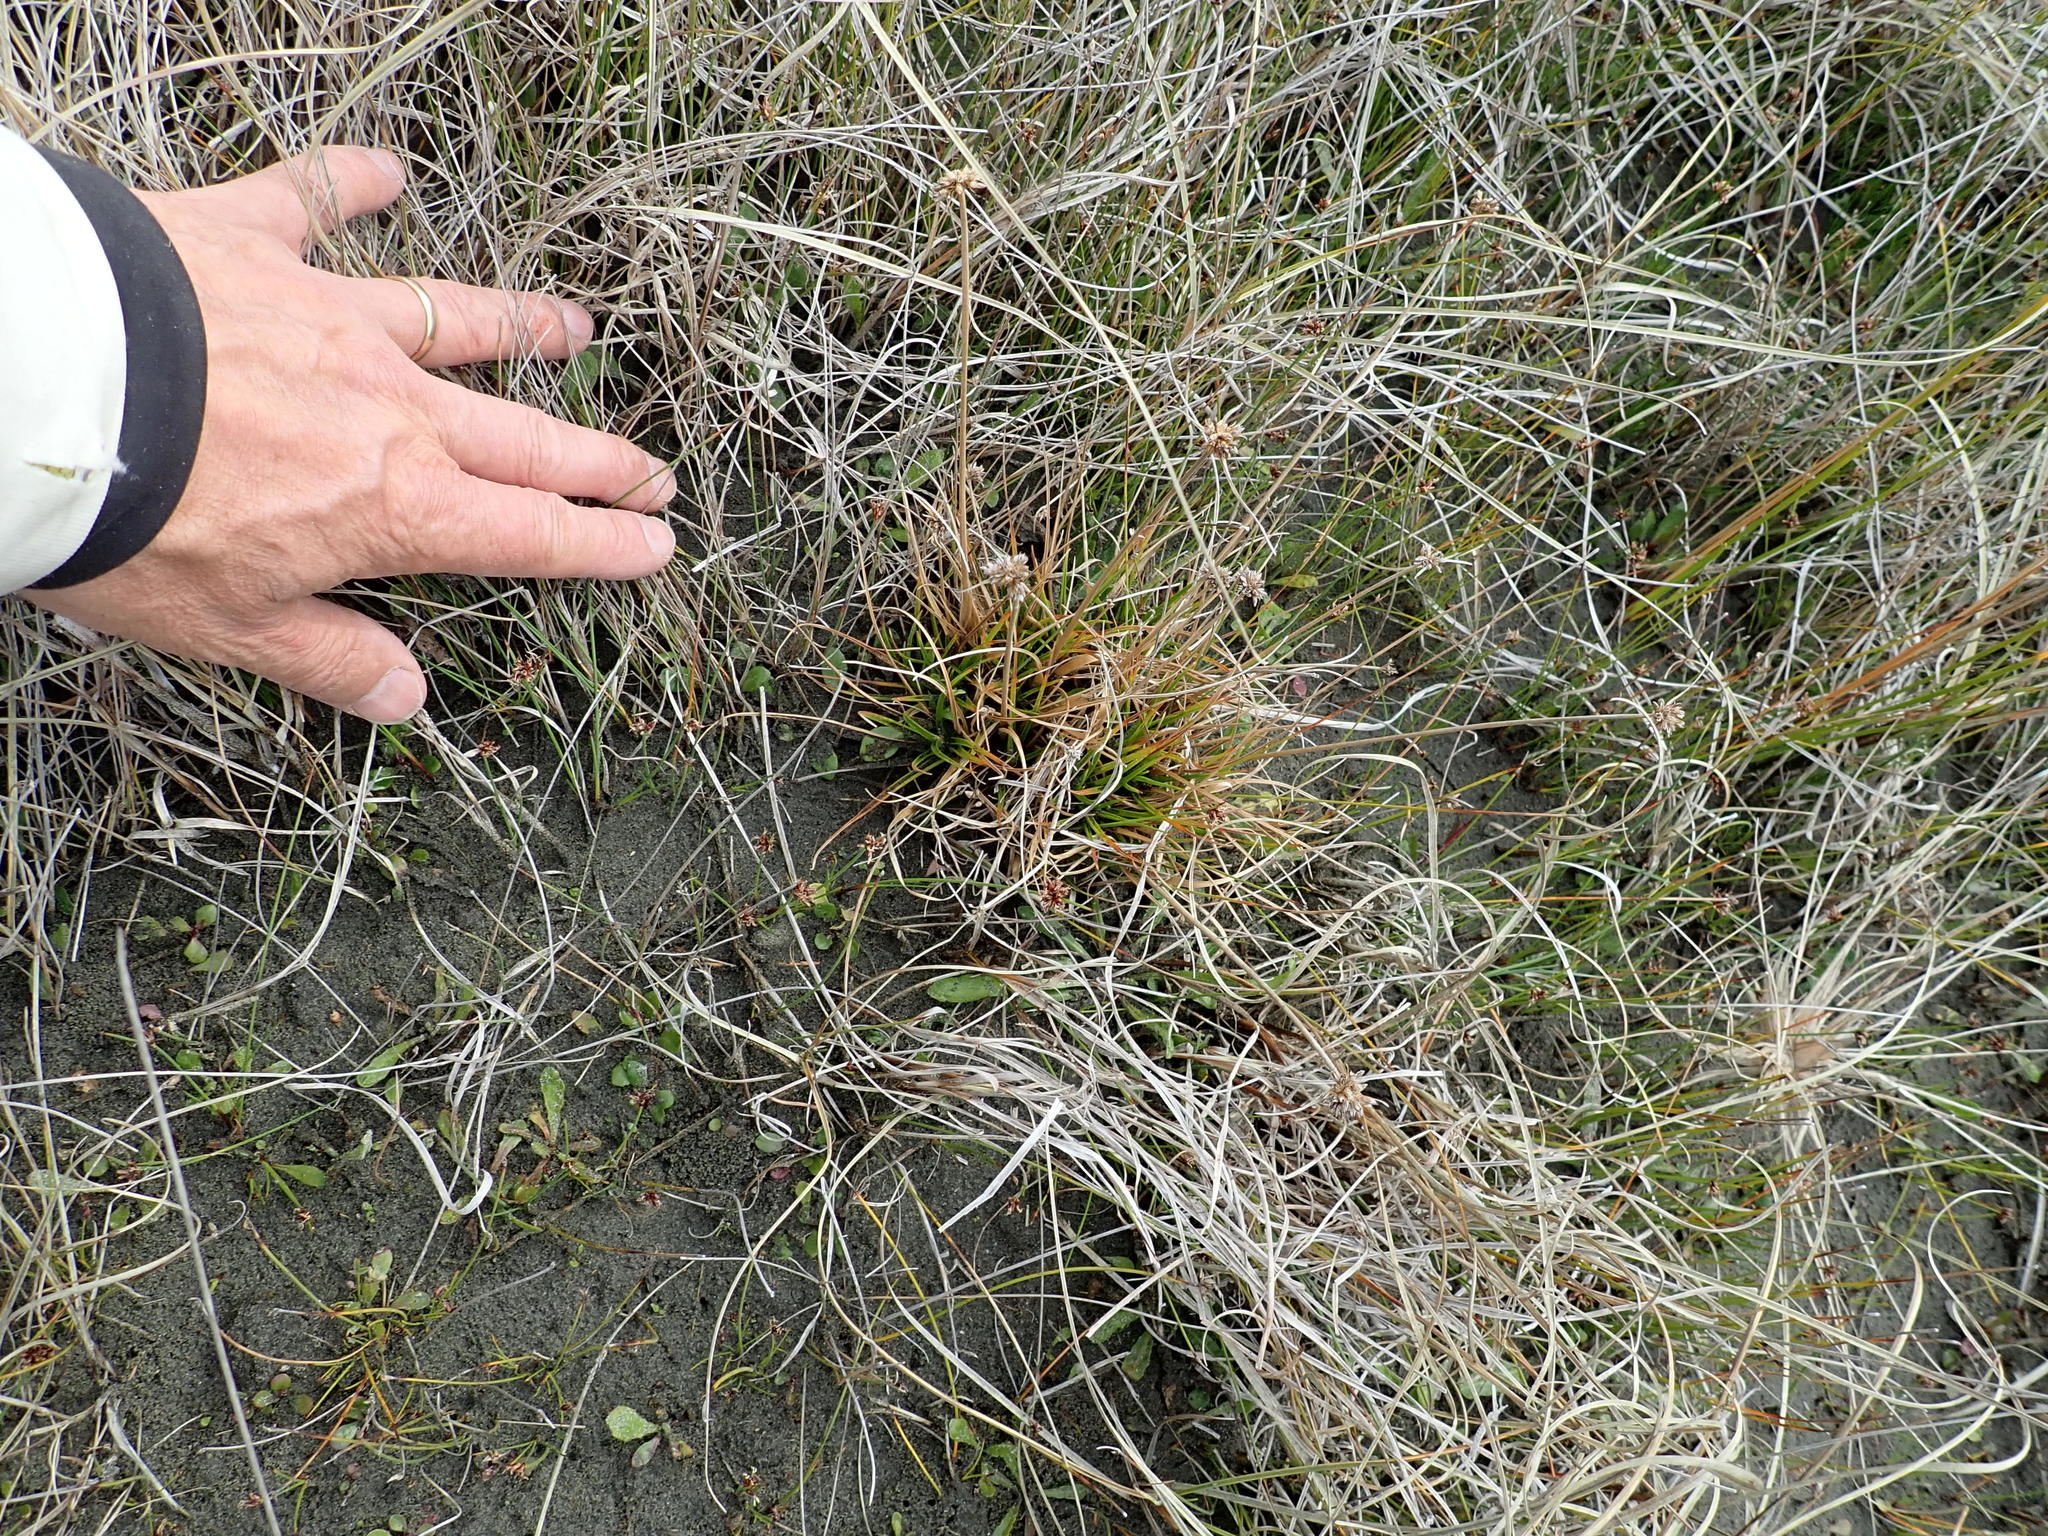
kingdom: Plantae
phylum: Tracheophyta
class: Liliopsida
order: Poales
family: Juncaceae
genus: Juncus
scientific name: Juncus caespiticius
